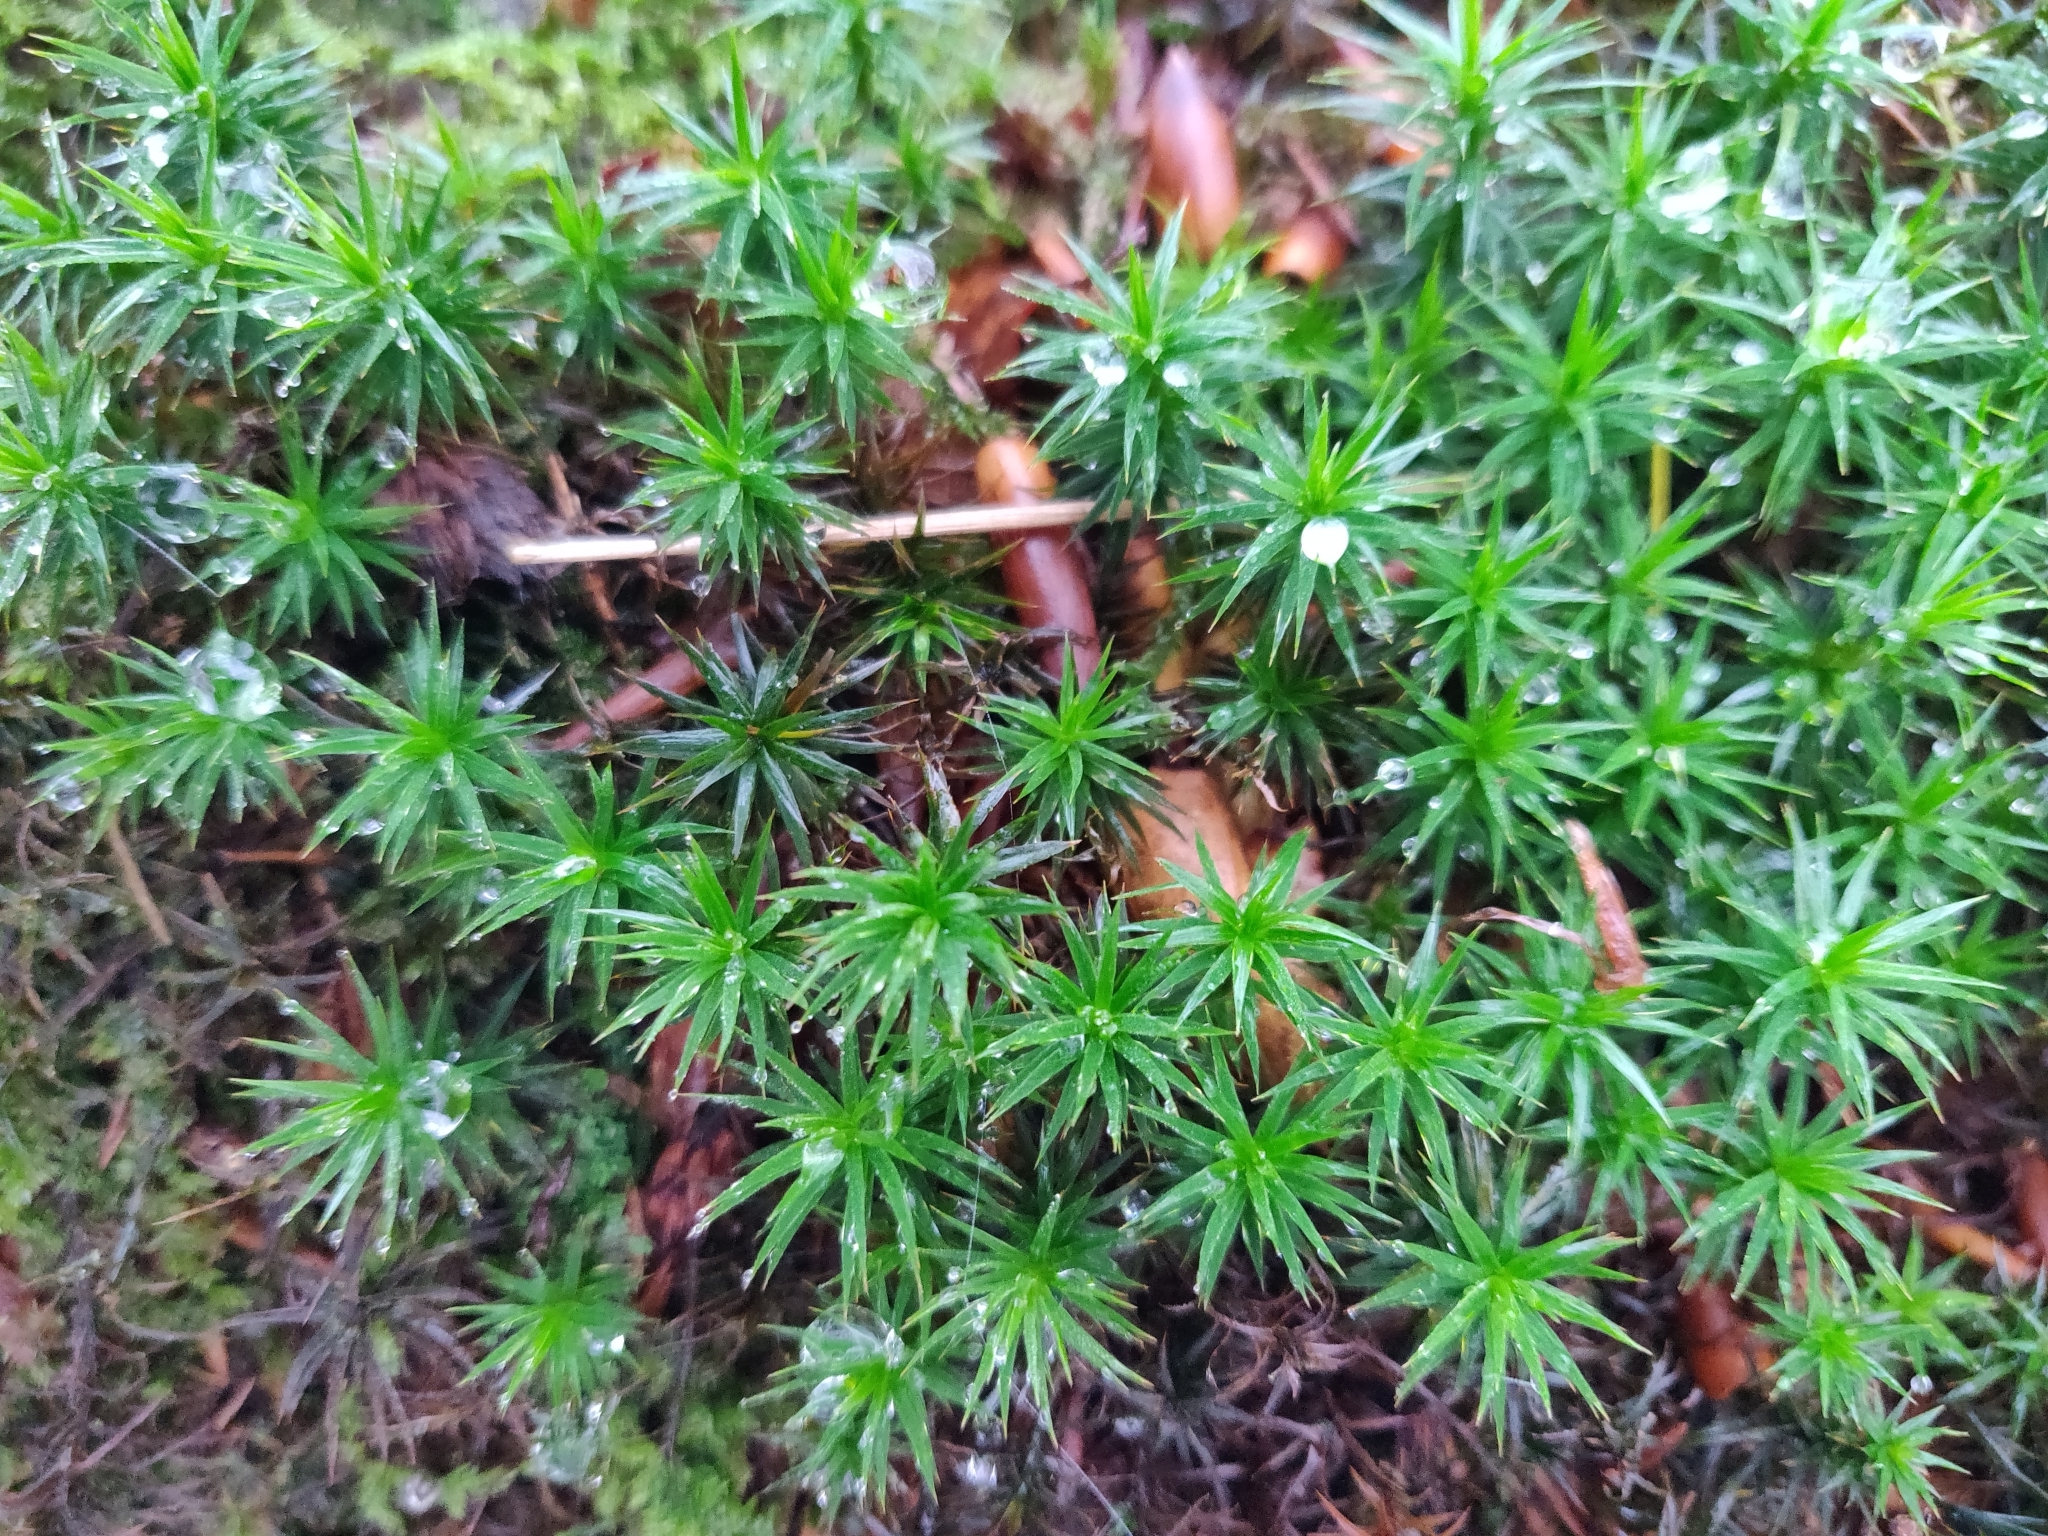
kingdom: Plantae
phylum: Bryophyta
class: Polytrichopsida
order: Polytrichales
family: Polytrichaceae
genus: Polytrichum
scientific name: Polytrichum formosum
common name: Bank haircap moss
